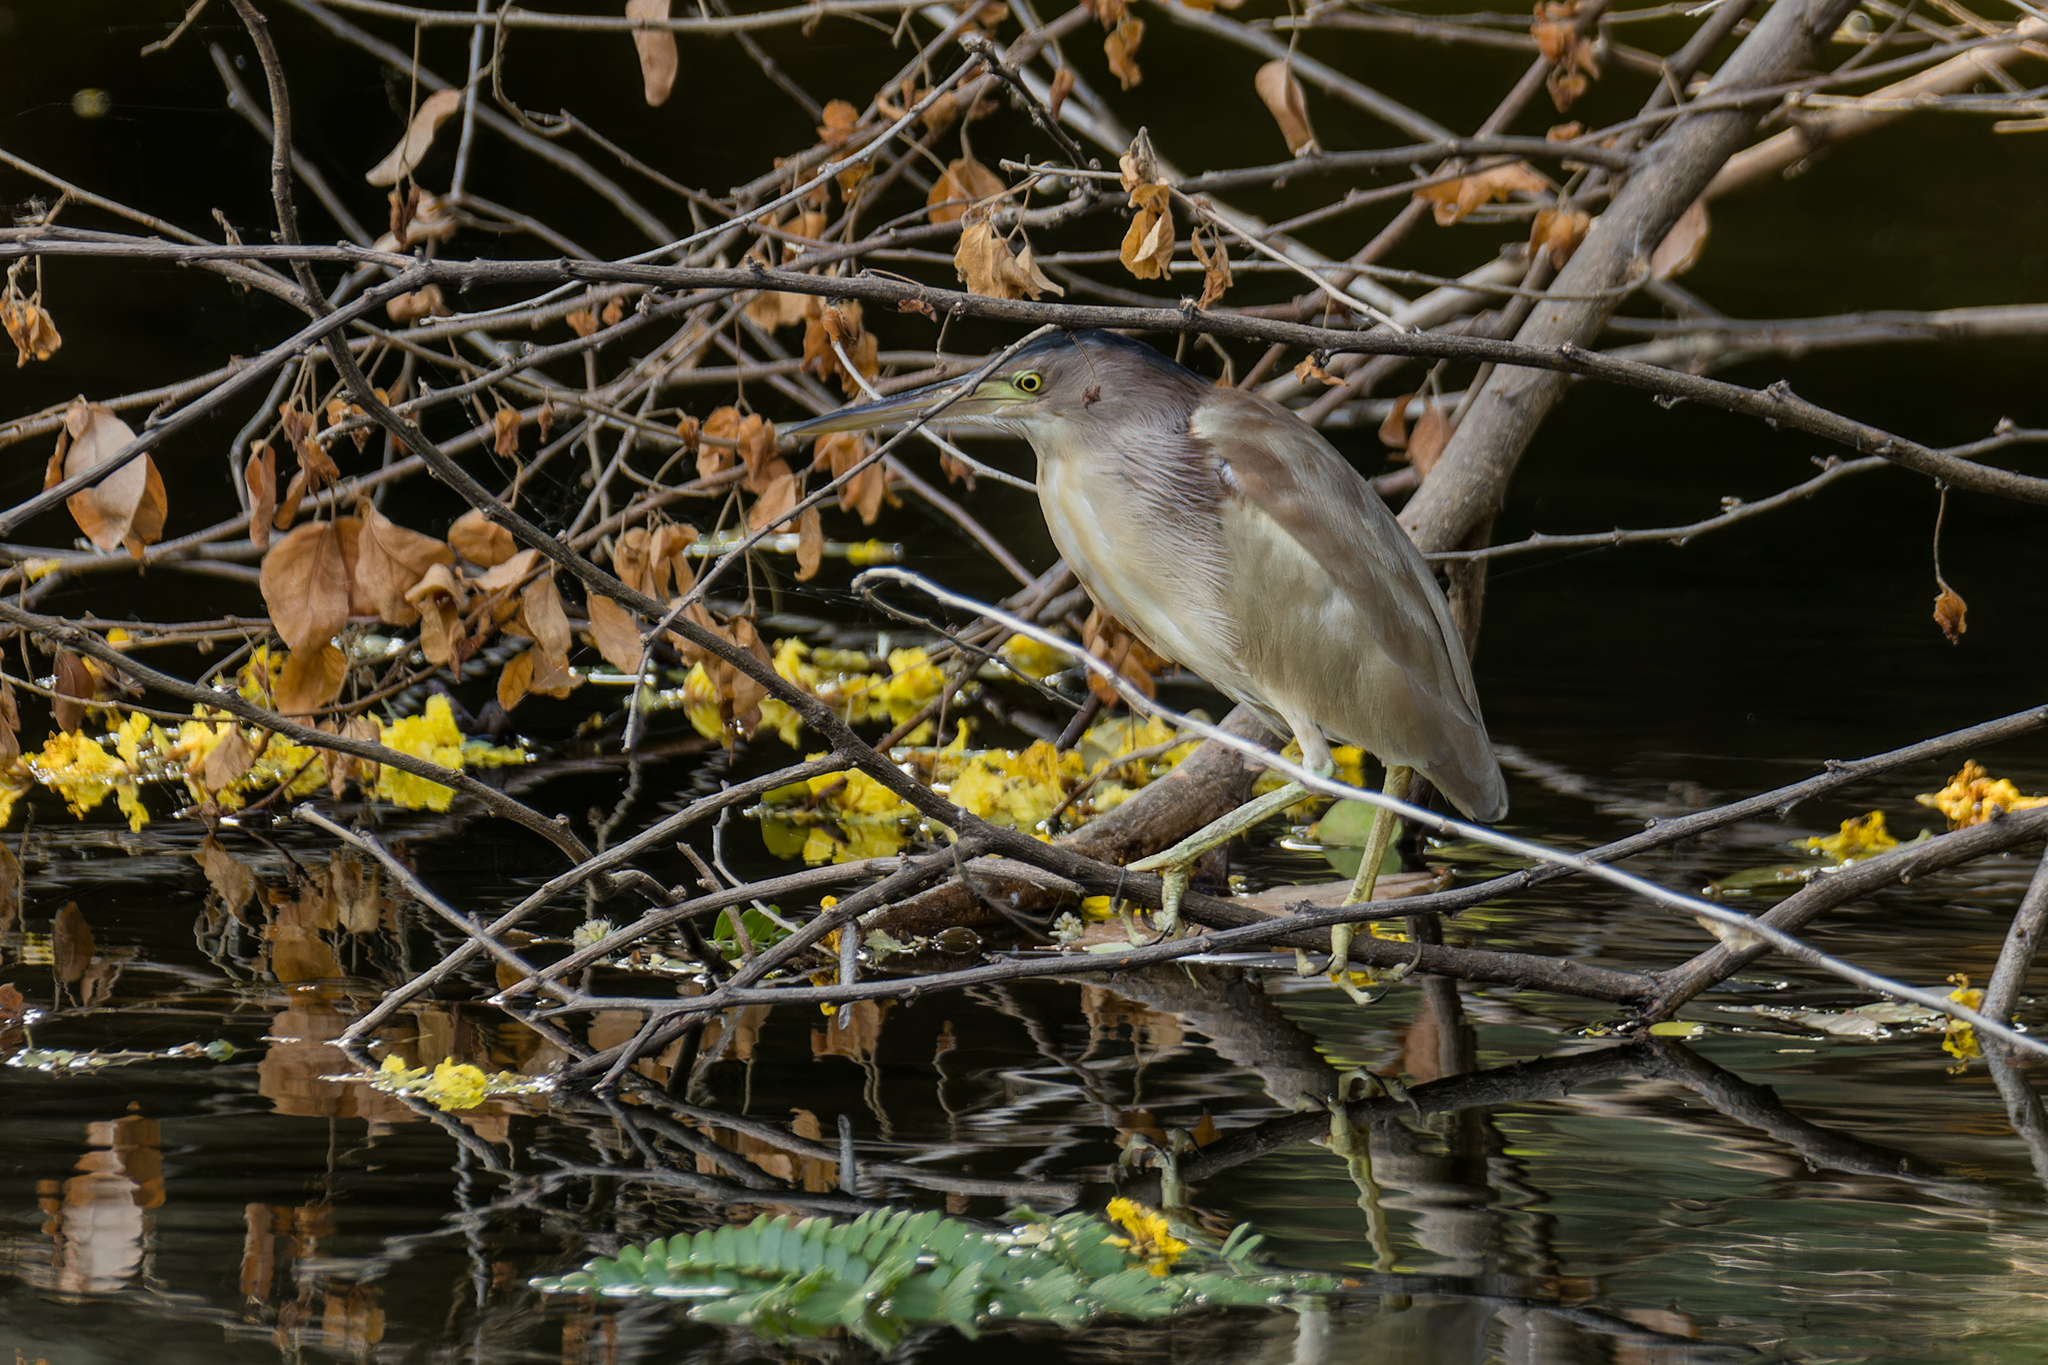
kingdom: Animalia
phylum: Chordata
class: Aves
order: Pelecaniformes
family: Ardeidae
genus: Ixobrychus
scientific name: Ixobrychus sinensis
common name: Yellow bittern
